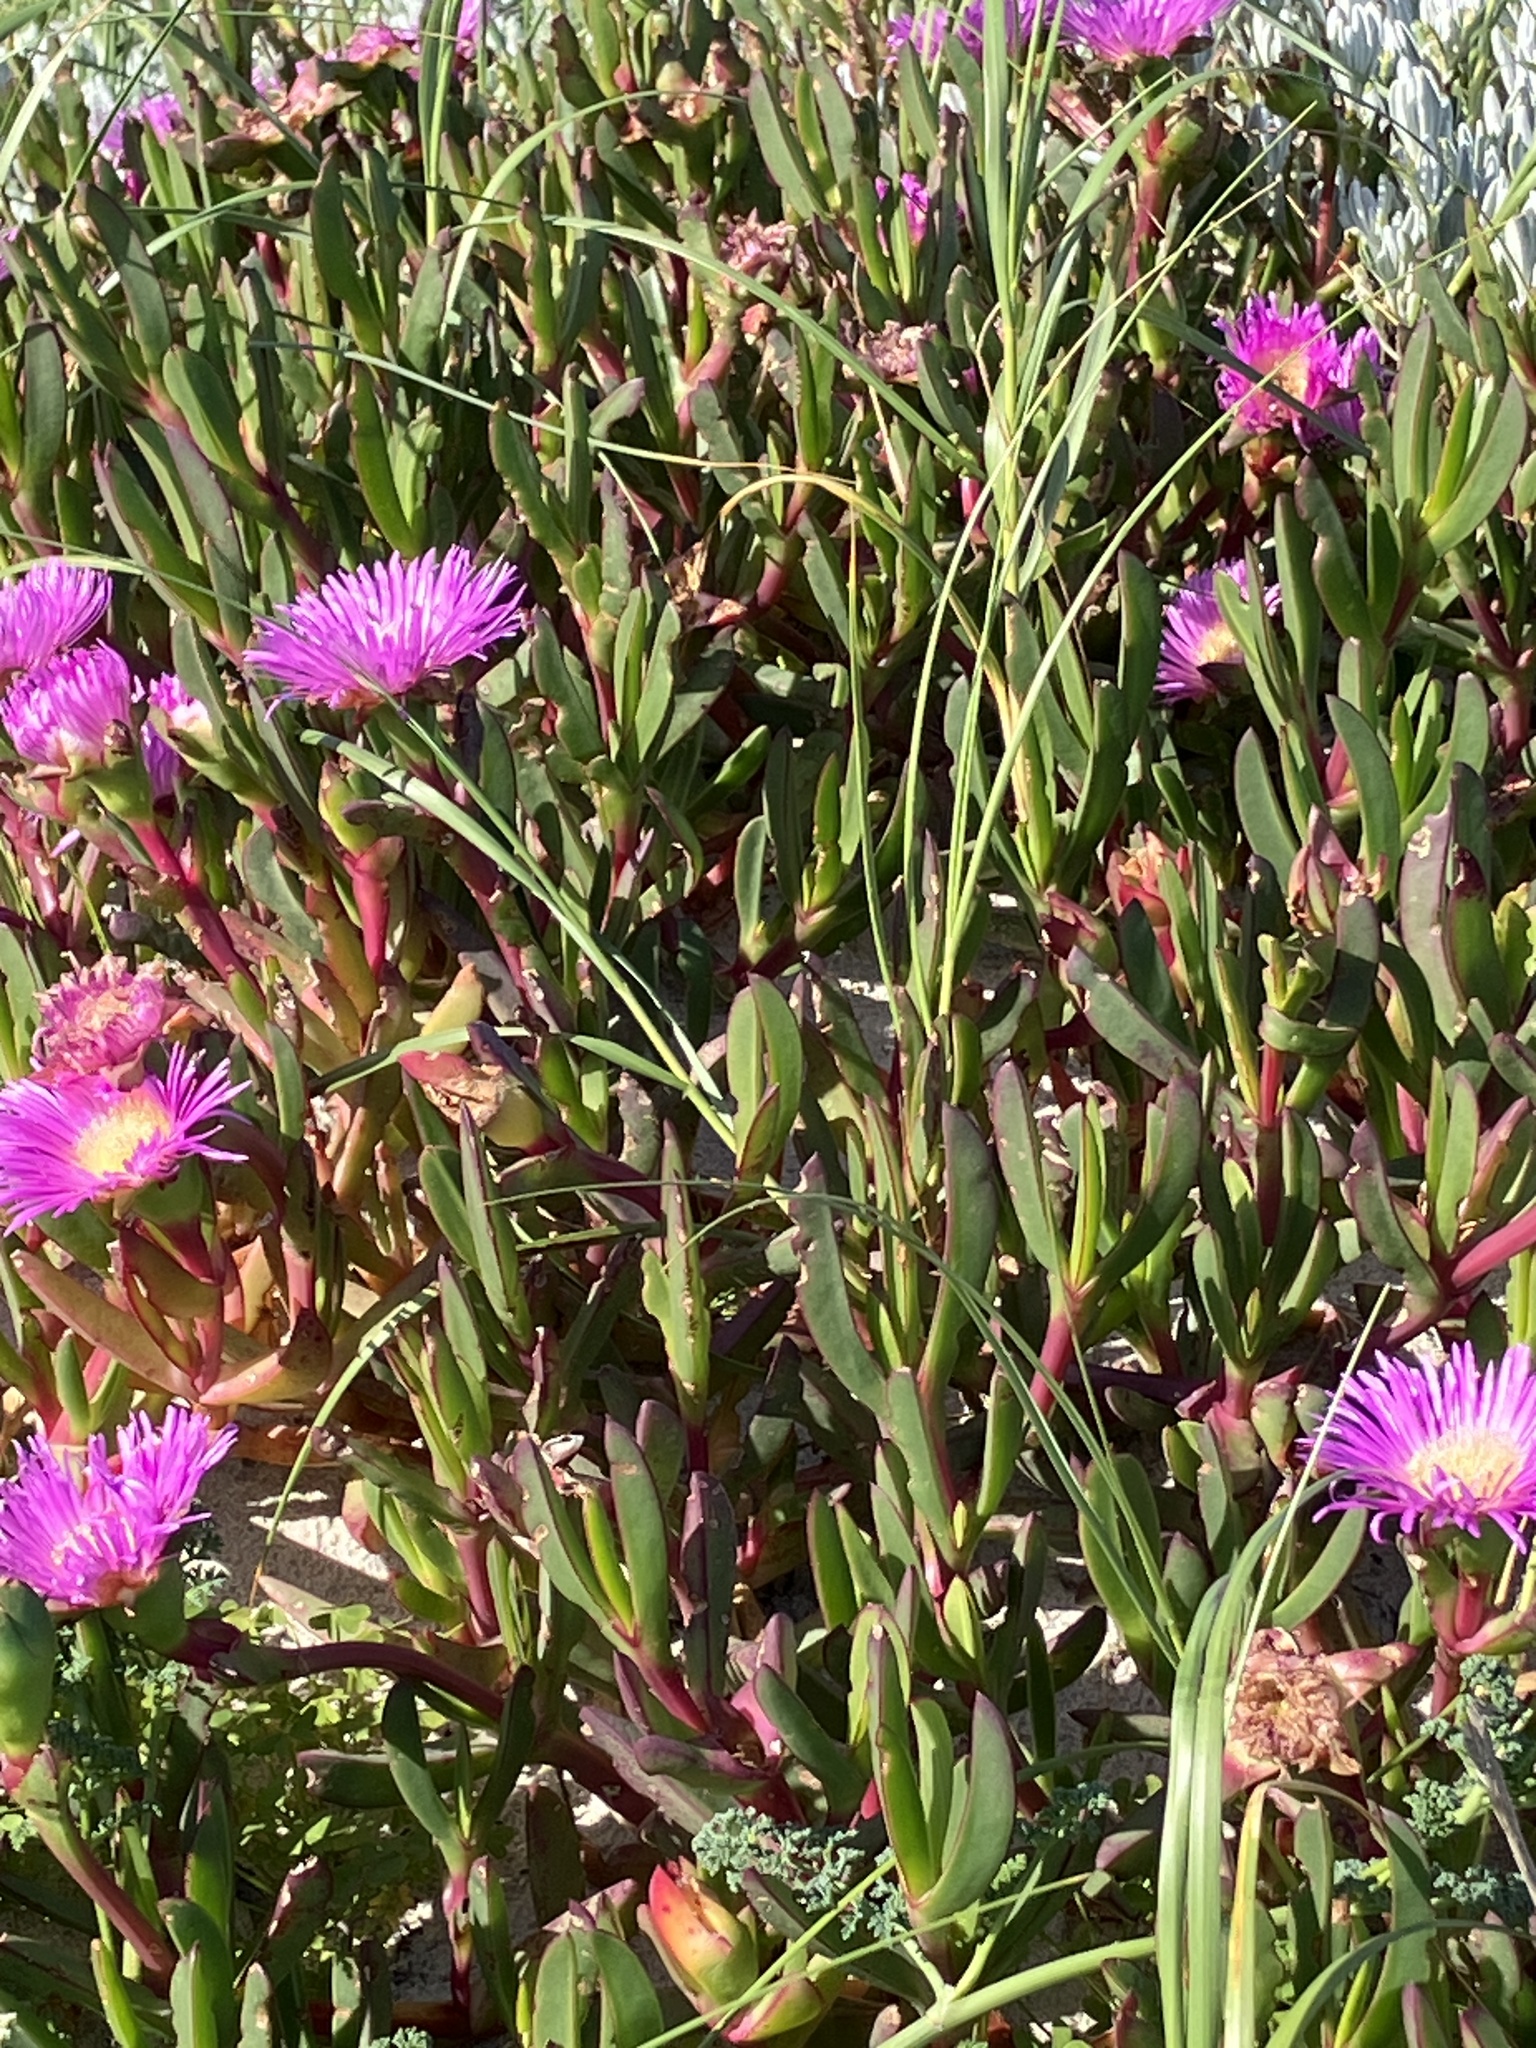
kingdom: Plantae
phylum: Tracheophyta
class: Magnoliopsida
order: Caryophyllales
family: Aizoaceae
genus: Carpobrotus
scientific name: Carpobrotus acinaciformis
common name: Sally-my-handsome
